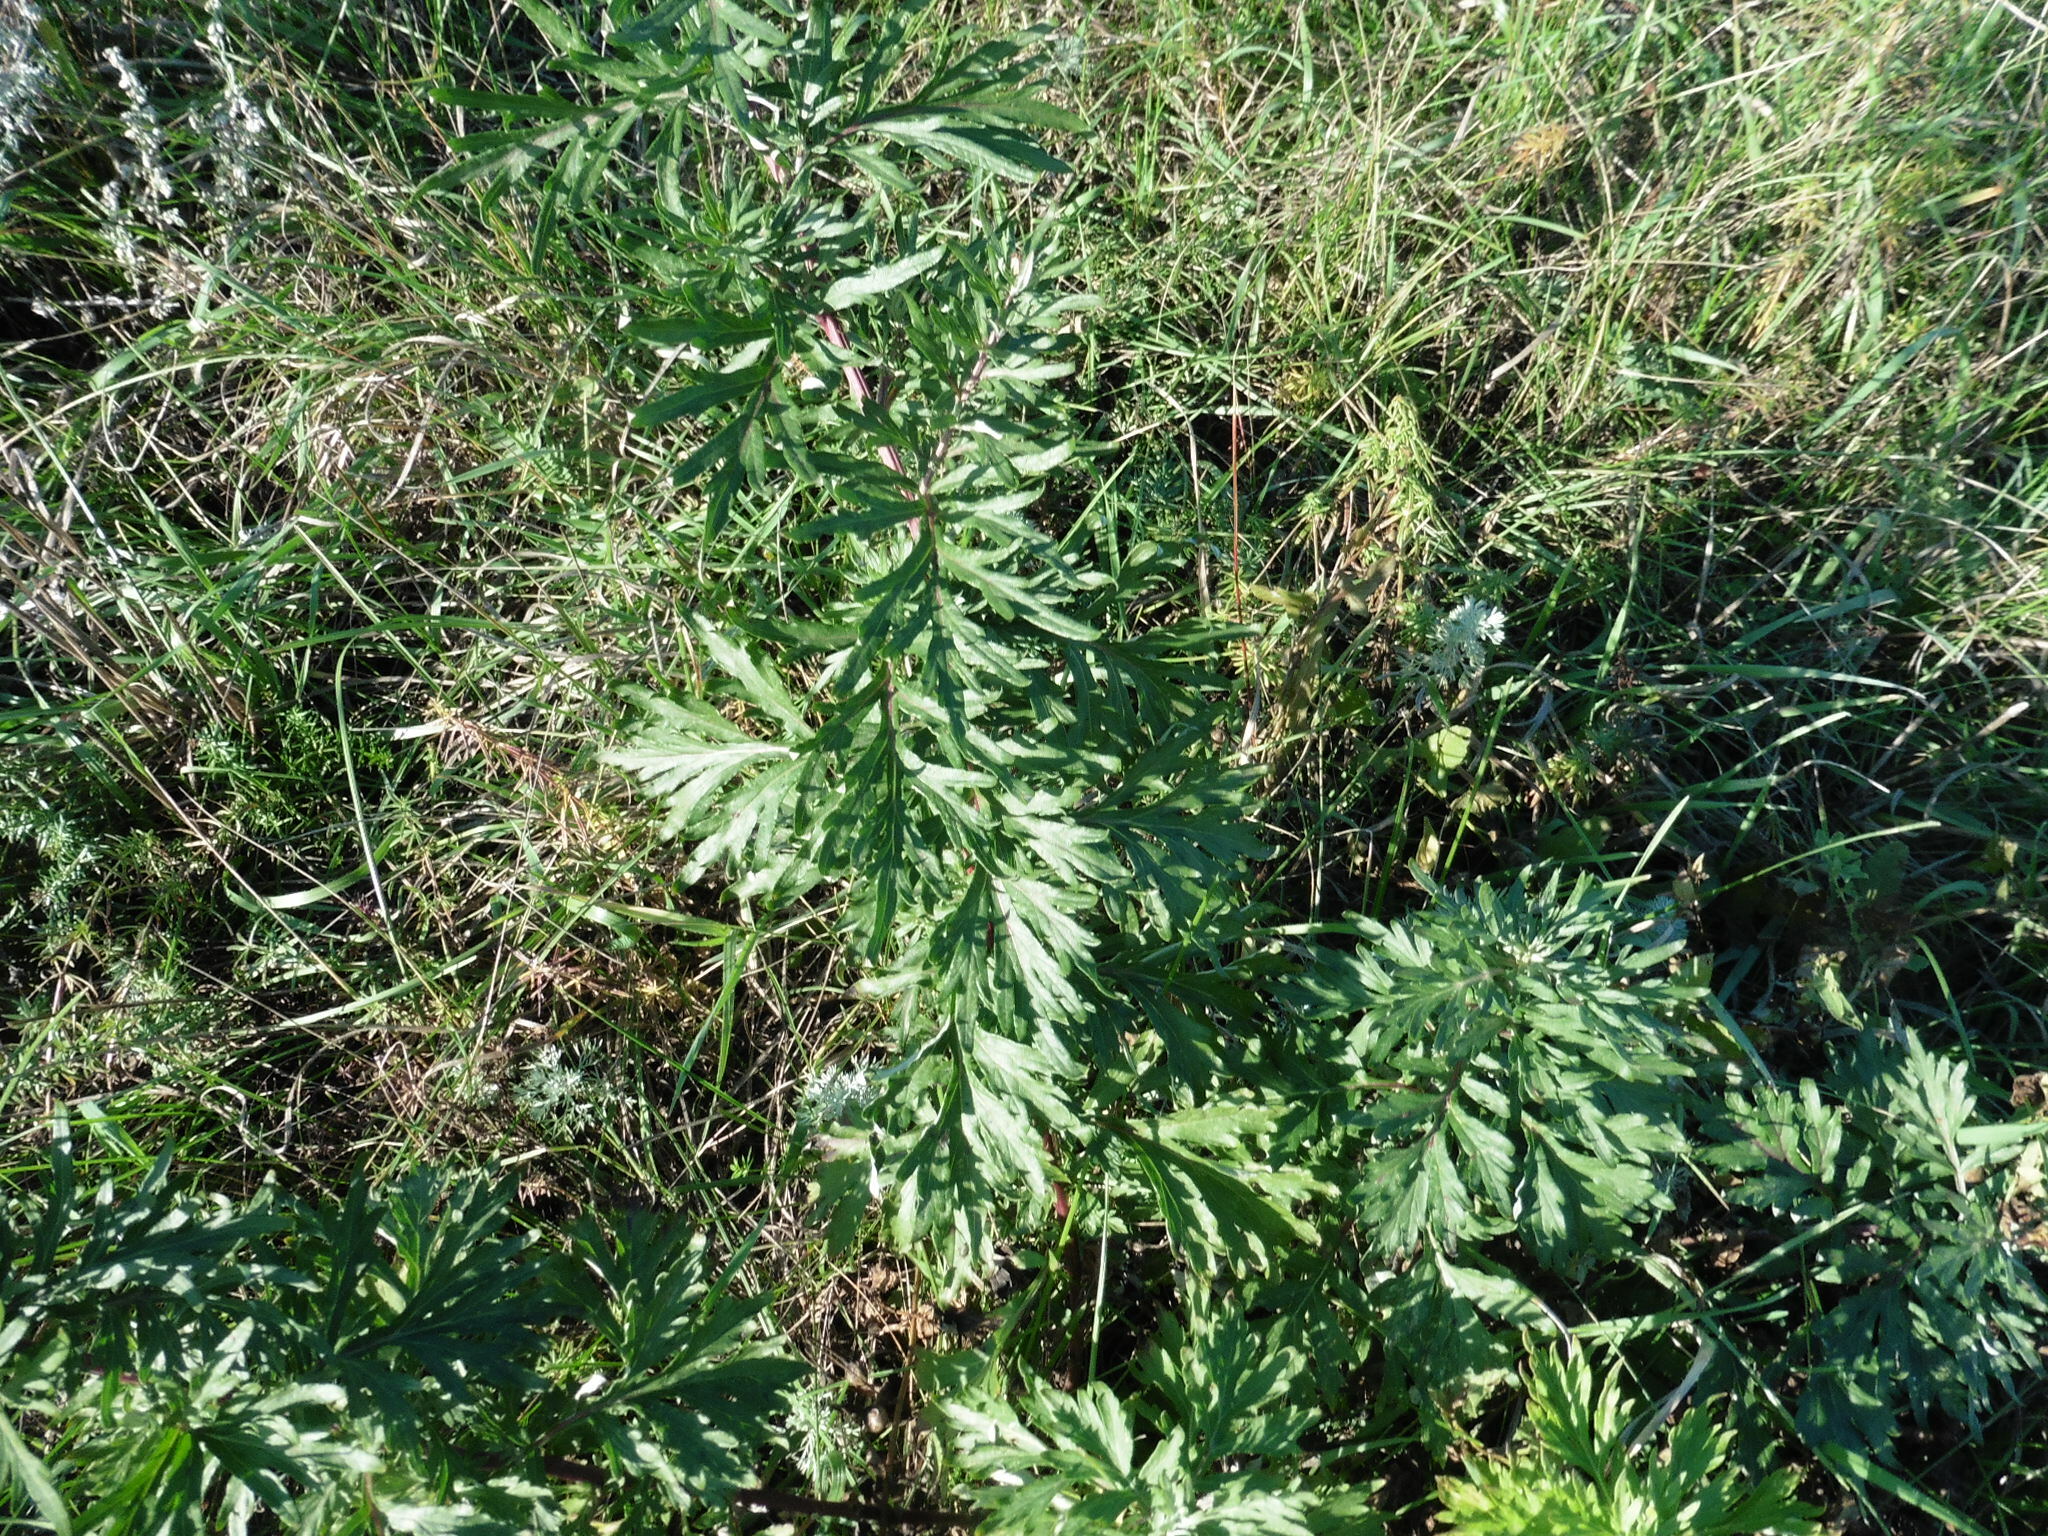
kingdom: Plantae
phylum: Tracheophyta
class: Magnoliopsida
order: Asterales
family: Asteraceae
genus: Artemisia
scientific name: Artemisia vulgaris
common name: Mugwort
